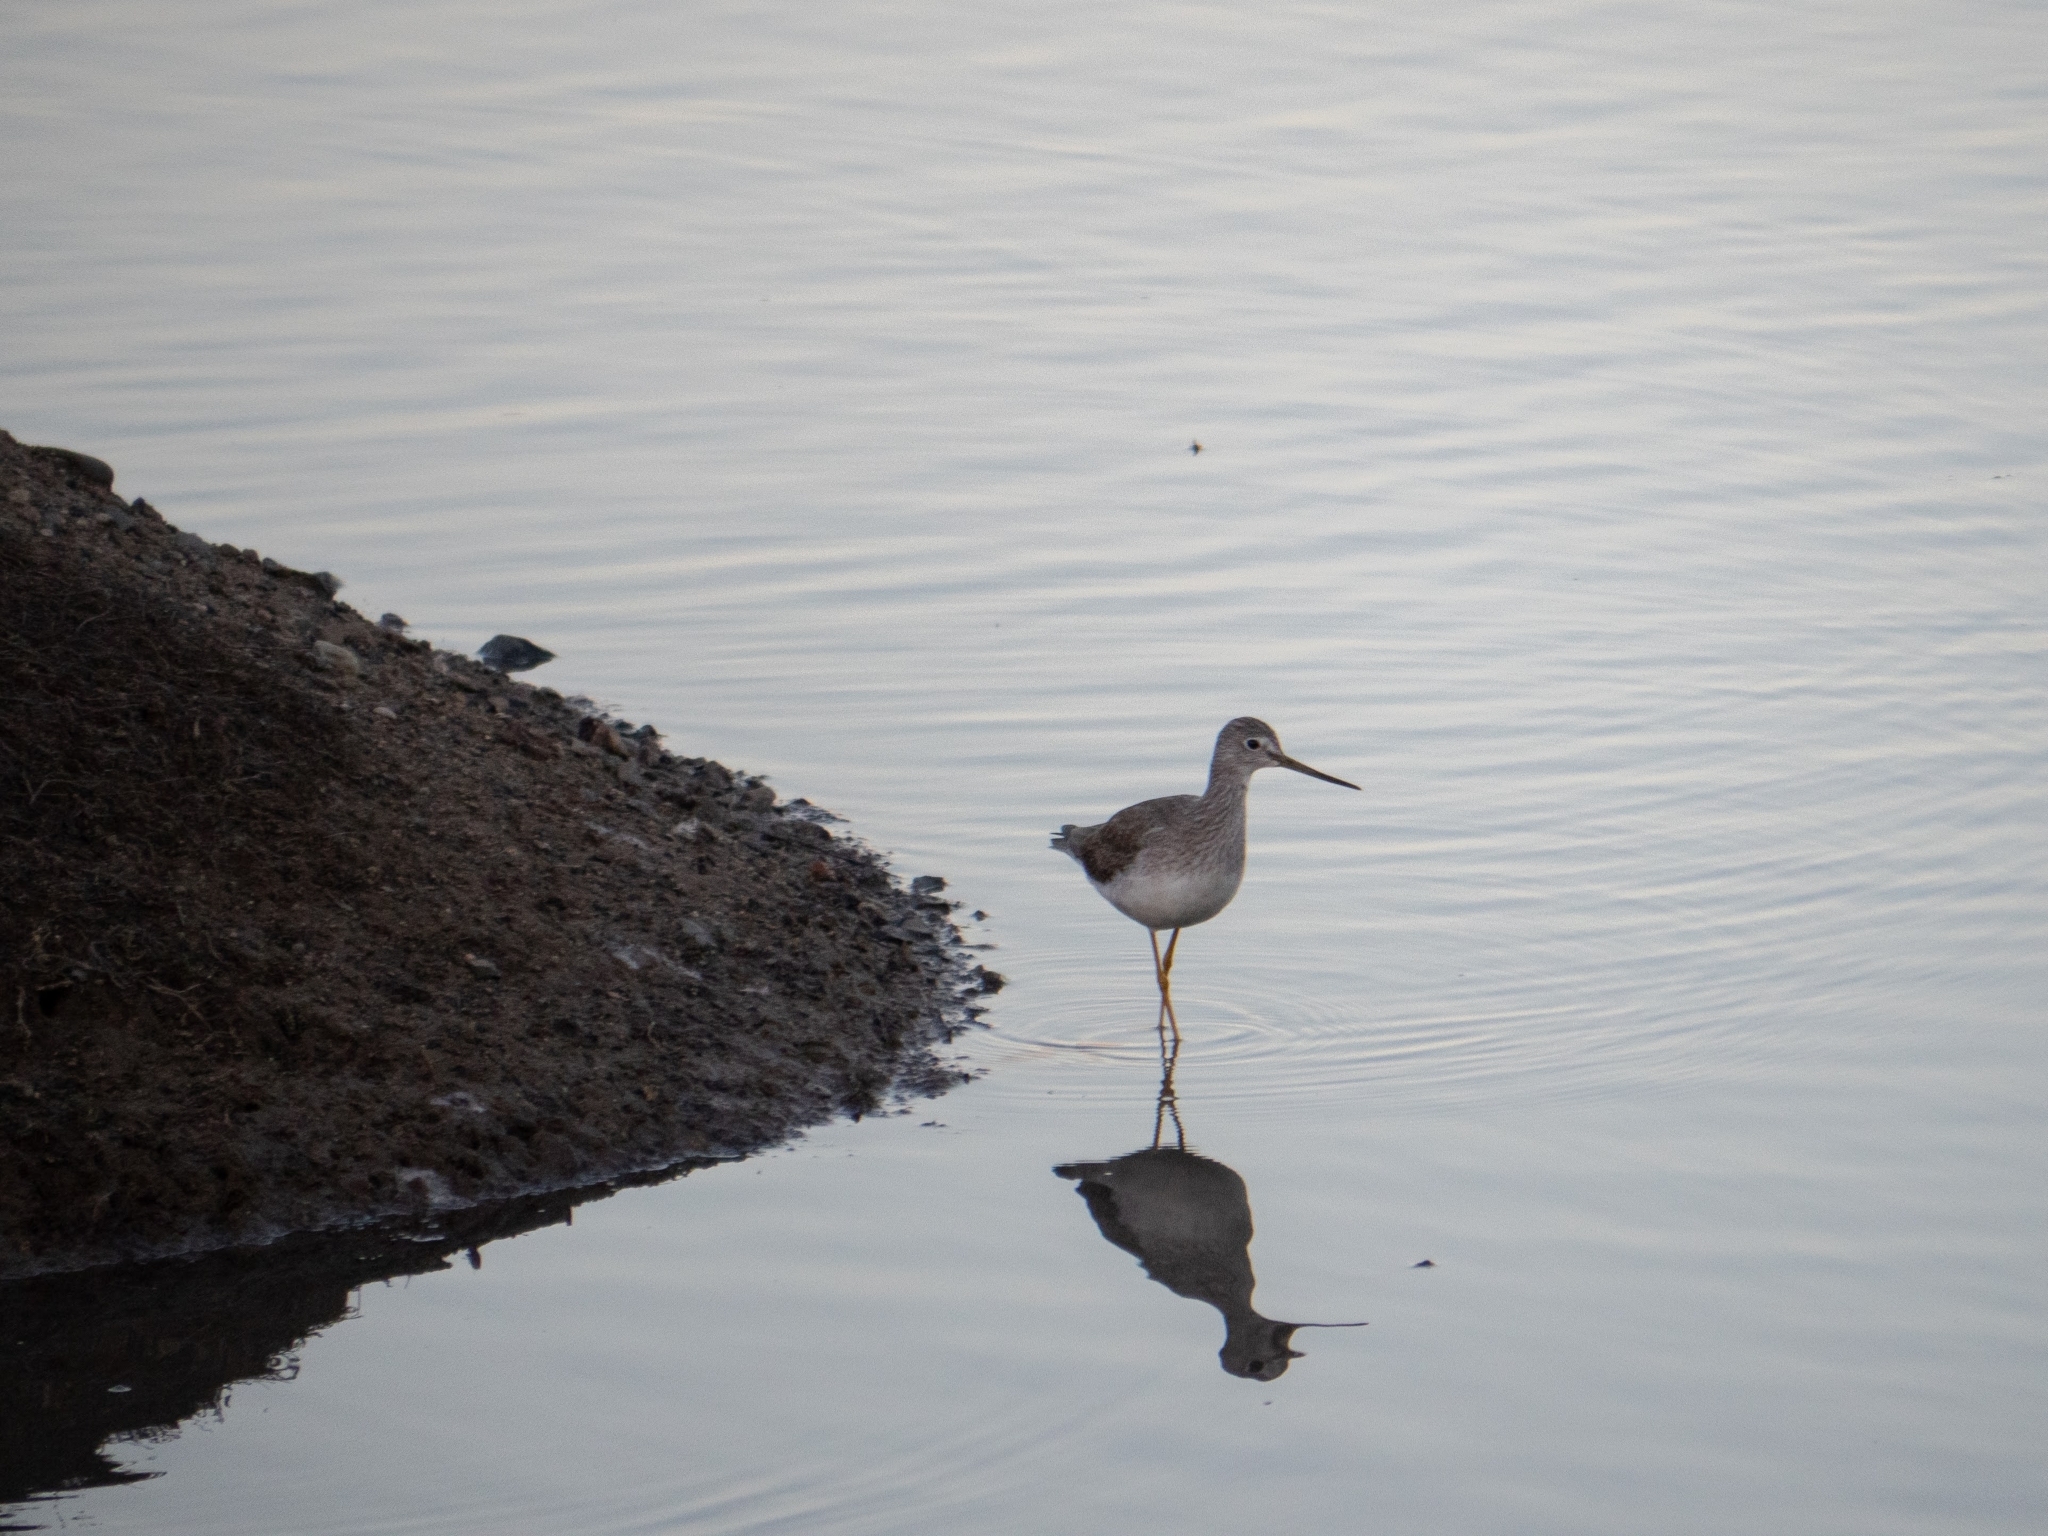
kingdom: Animalia
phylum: Chordata
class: Aves
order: Charadriiformes
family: Scolopacidae
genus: Tringa
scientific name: Tringa melanoleuca
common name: Greater yellowlegs
